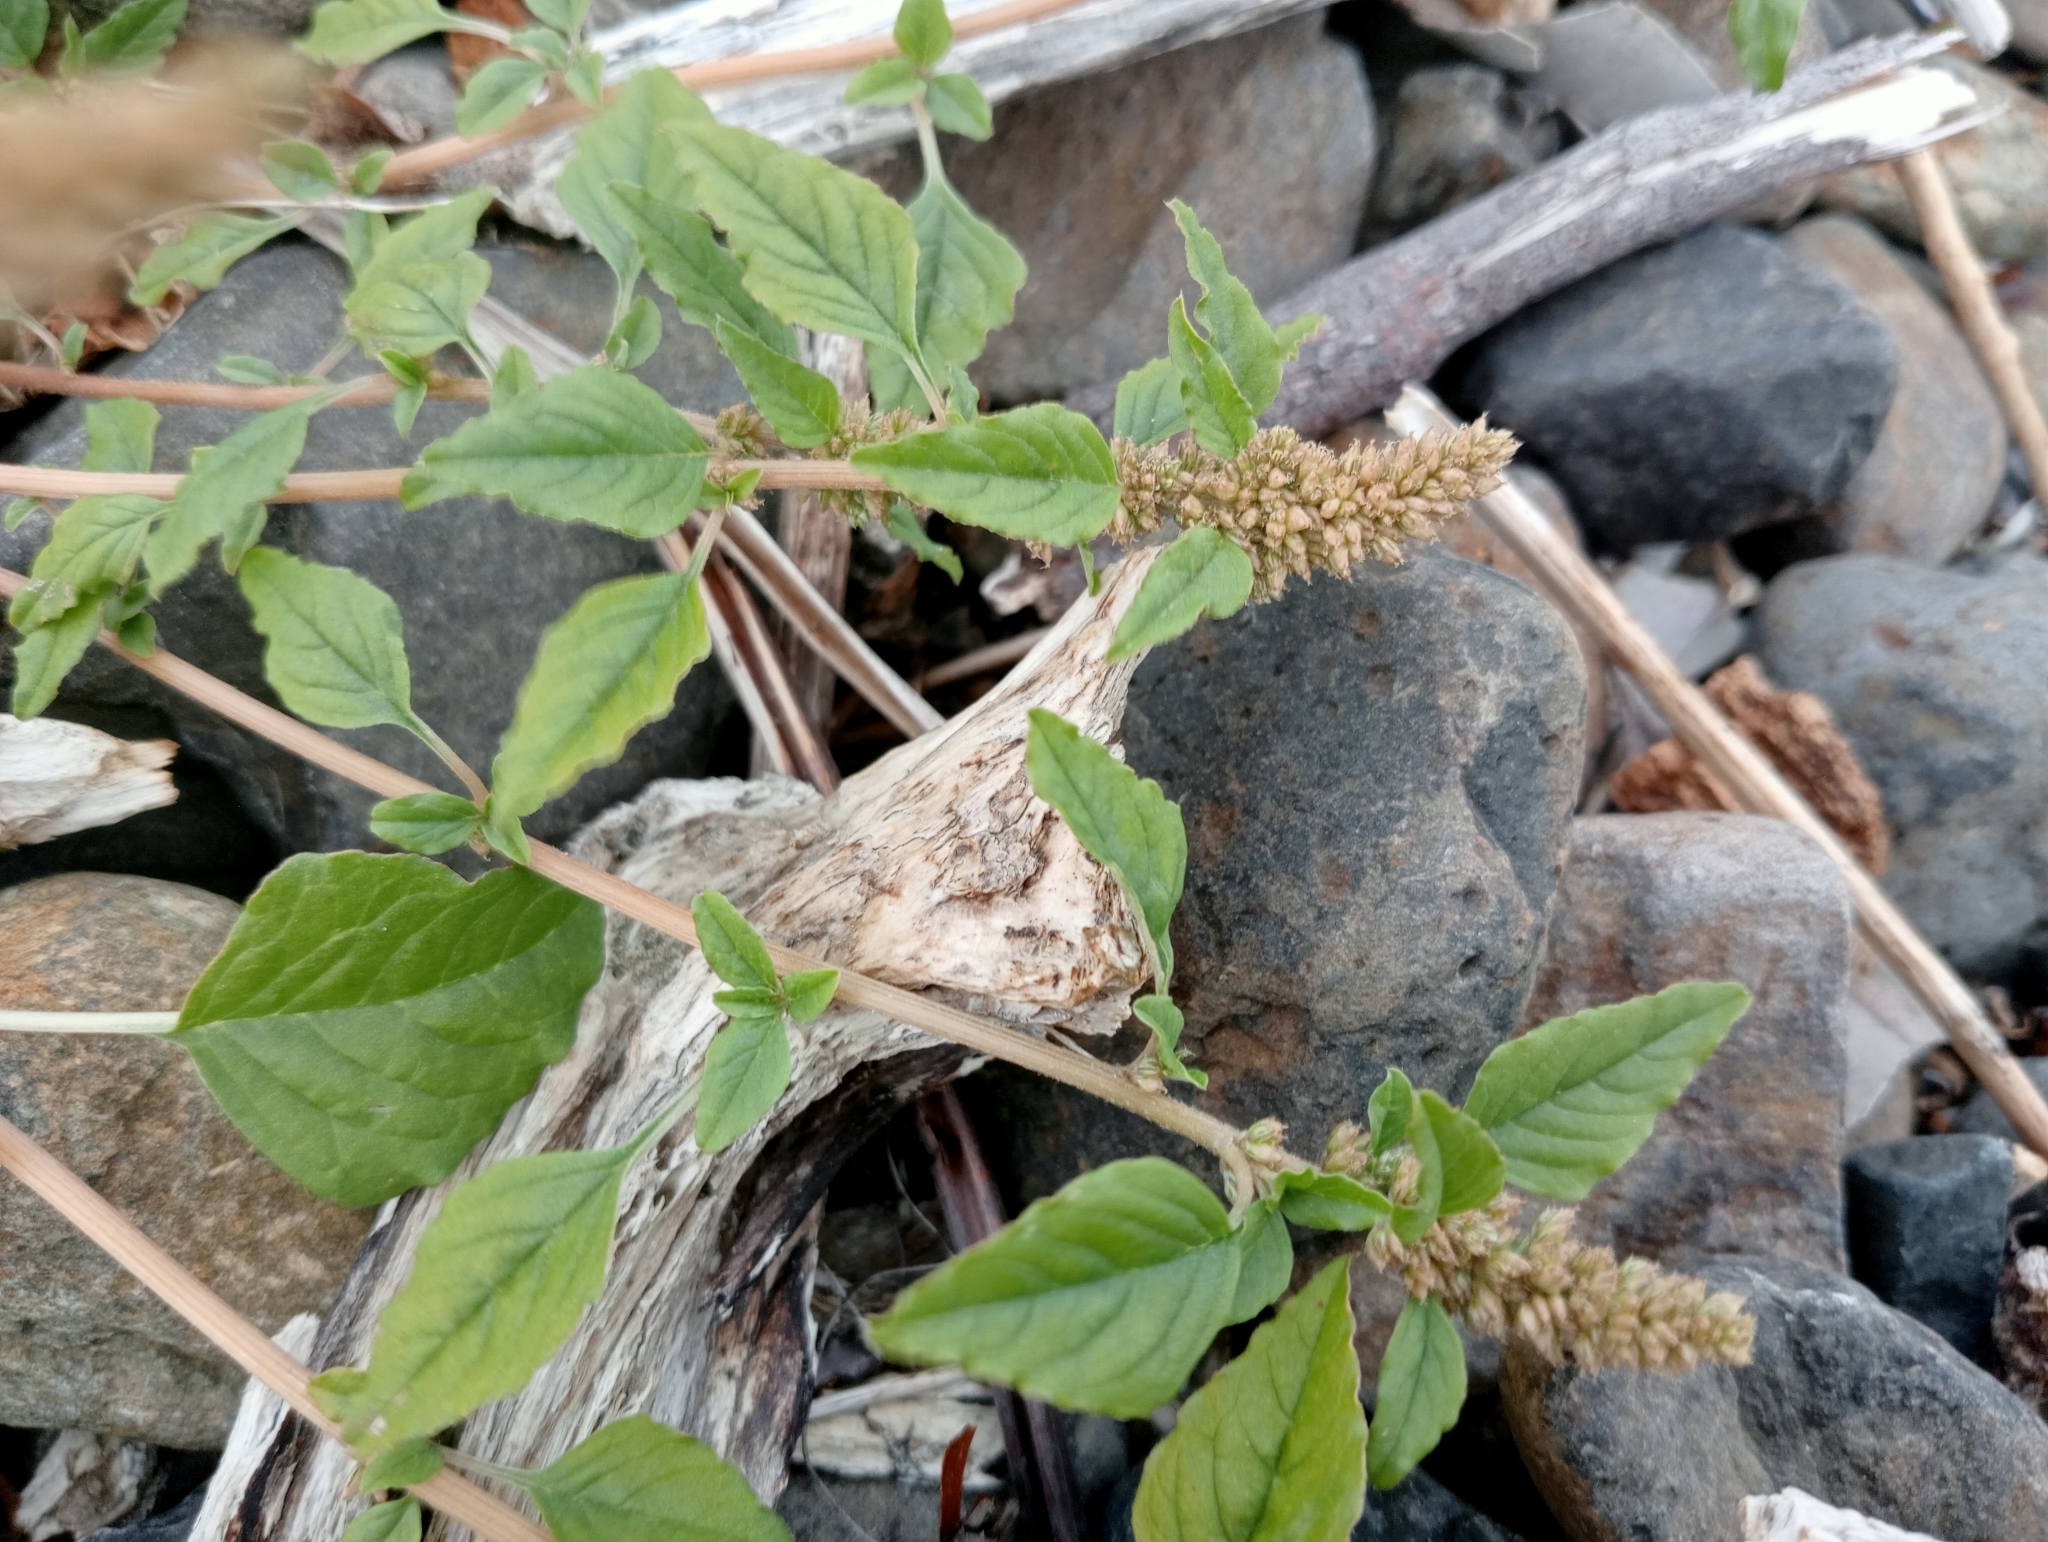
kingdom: Plantae
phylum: Tracheophyta
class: Magnoliopsida
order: Caryophyllales
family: Amaranthaceae
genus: Amaranthus
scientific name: Amaranthus deflexus
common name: Perennial pigweed
